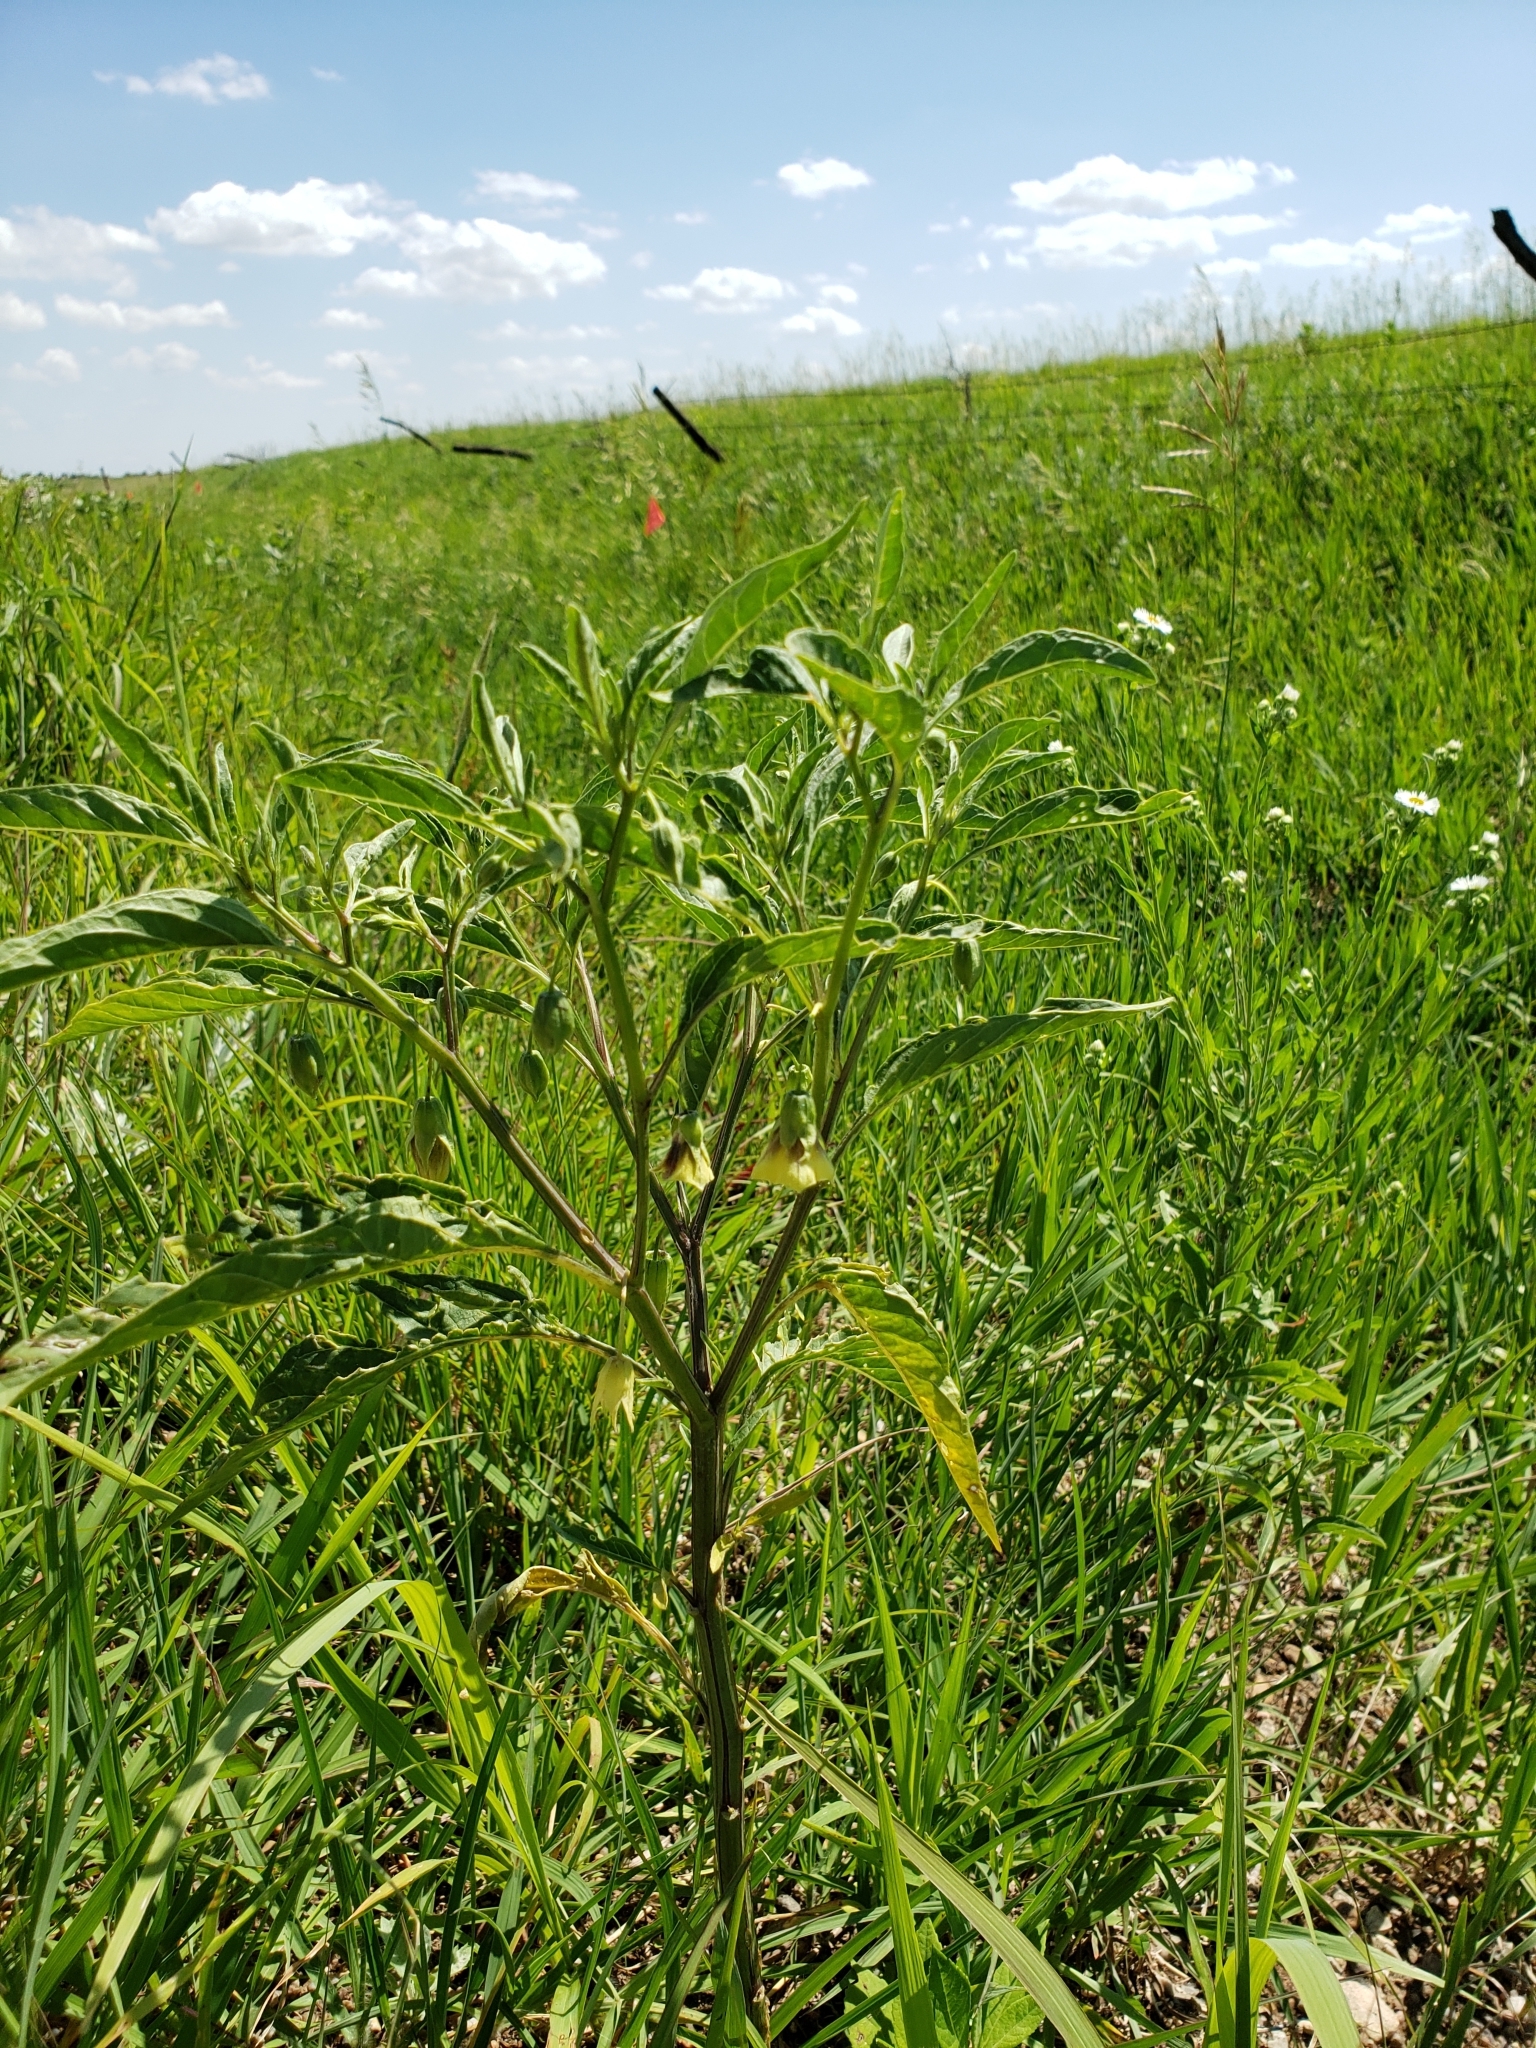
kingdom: Plantae
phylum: Tracheophyta
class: Magnoliopsida
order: Solanales
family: Solanaceae
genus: Physalis
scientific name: Physalis longifolia
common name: Common ground-cherry
